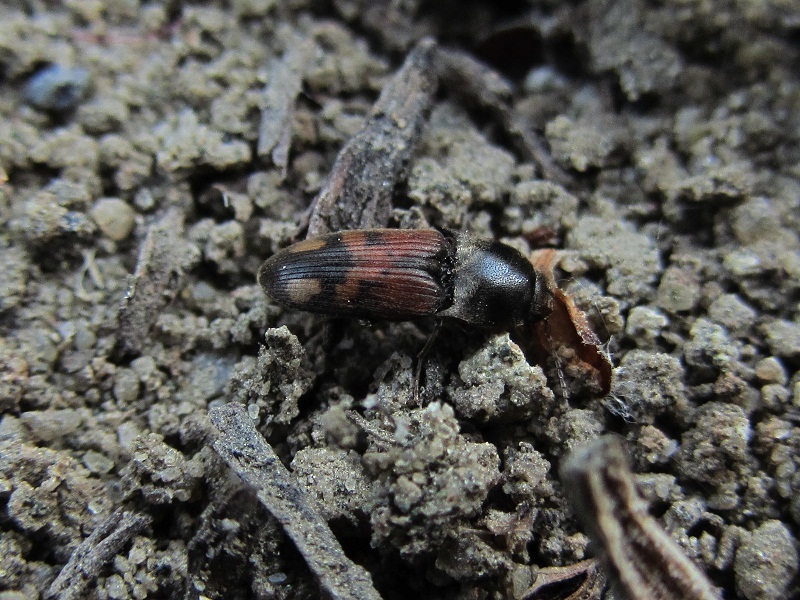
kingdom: Animalia
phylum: Arthropoda
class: Insecta
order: Coleoptera
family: Elateridae
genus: Drasterius
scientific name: Drasterius bimaculatus
